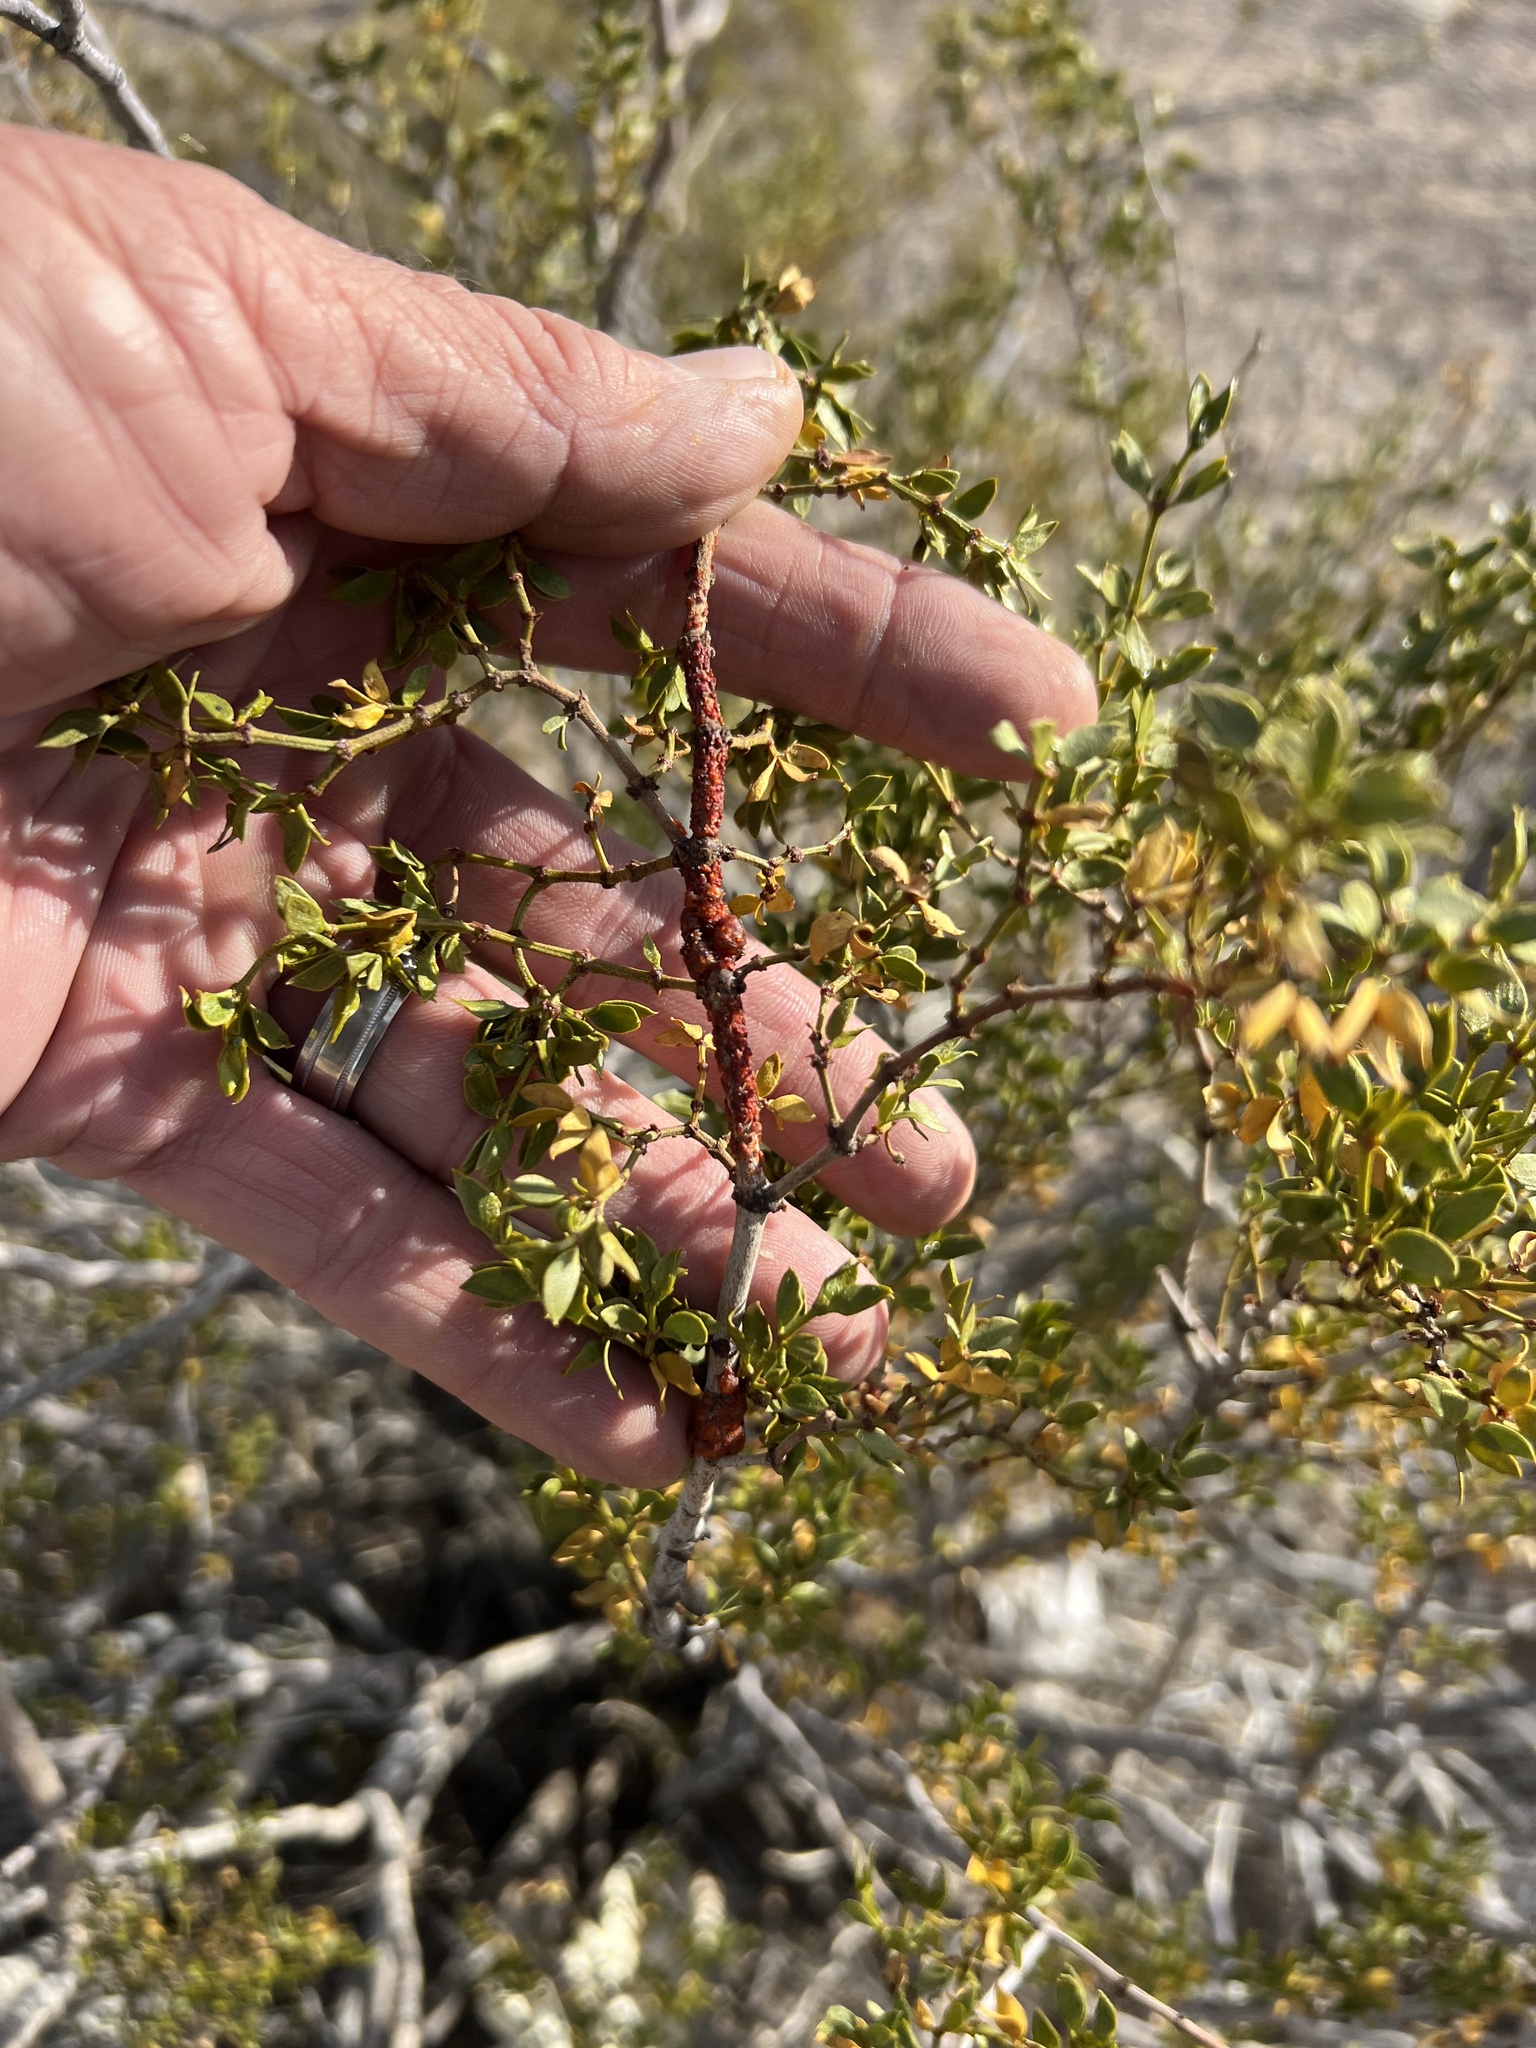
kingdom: Animalia
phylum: Arthropoda
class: Insecta
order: Hemiptera
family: Kerriidae
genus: Tachardiella
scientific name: Tachardiella larreae
